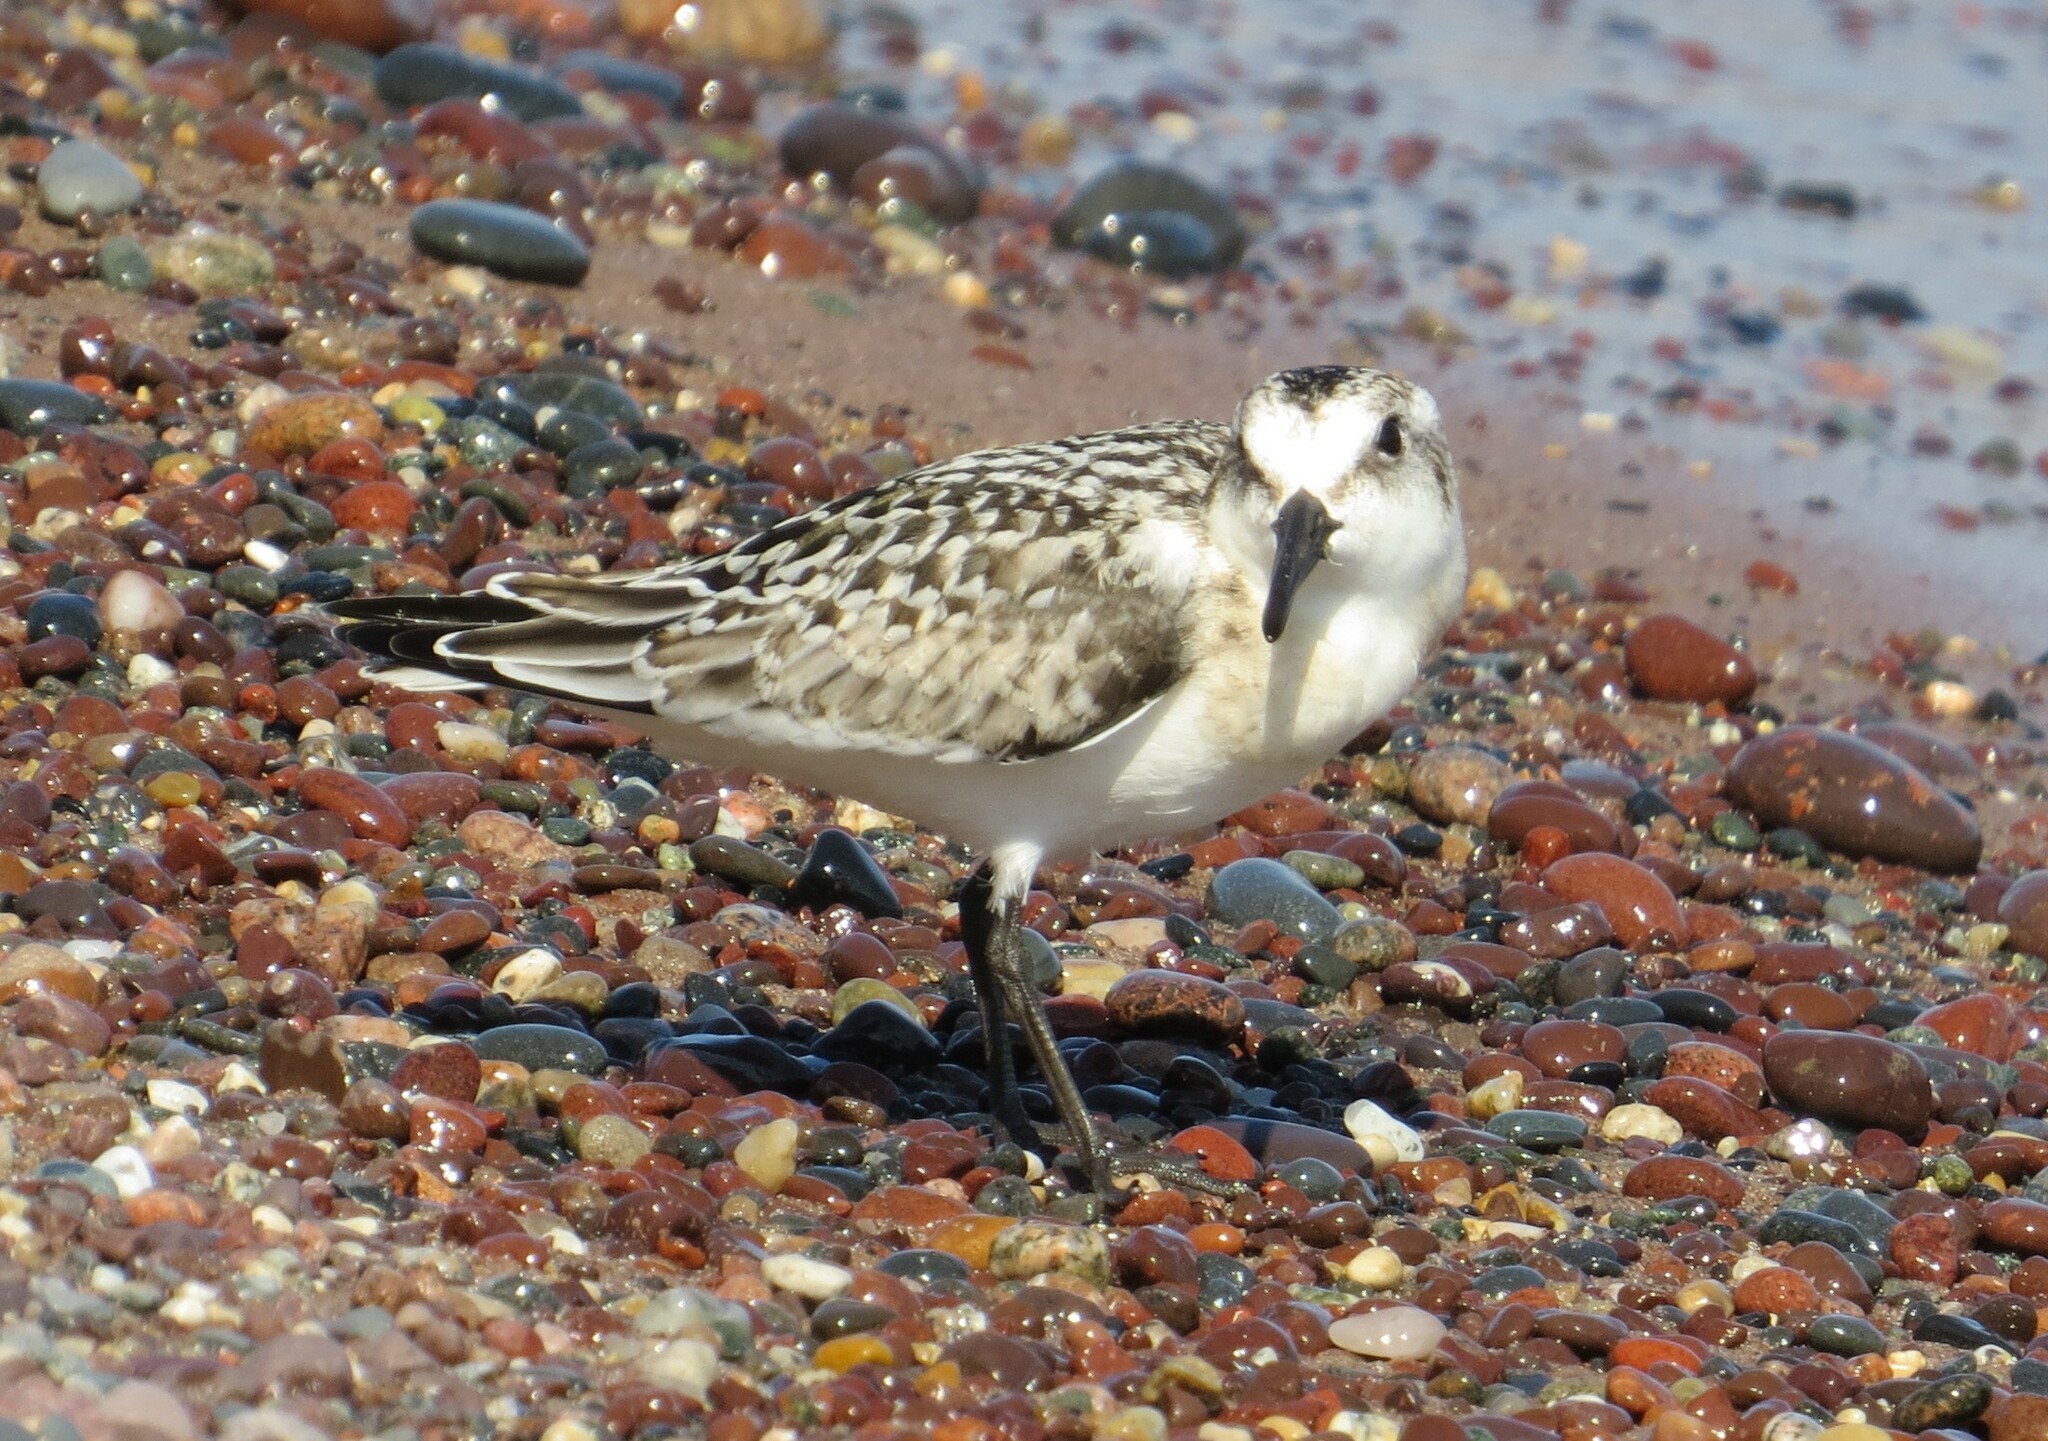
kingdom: Animalia
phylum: Chordata
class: Aves
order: Charadriiformes
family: Scolopacidae
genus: Calidris
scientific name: Calidris alba
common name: Sanderling
